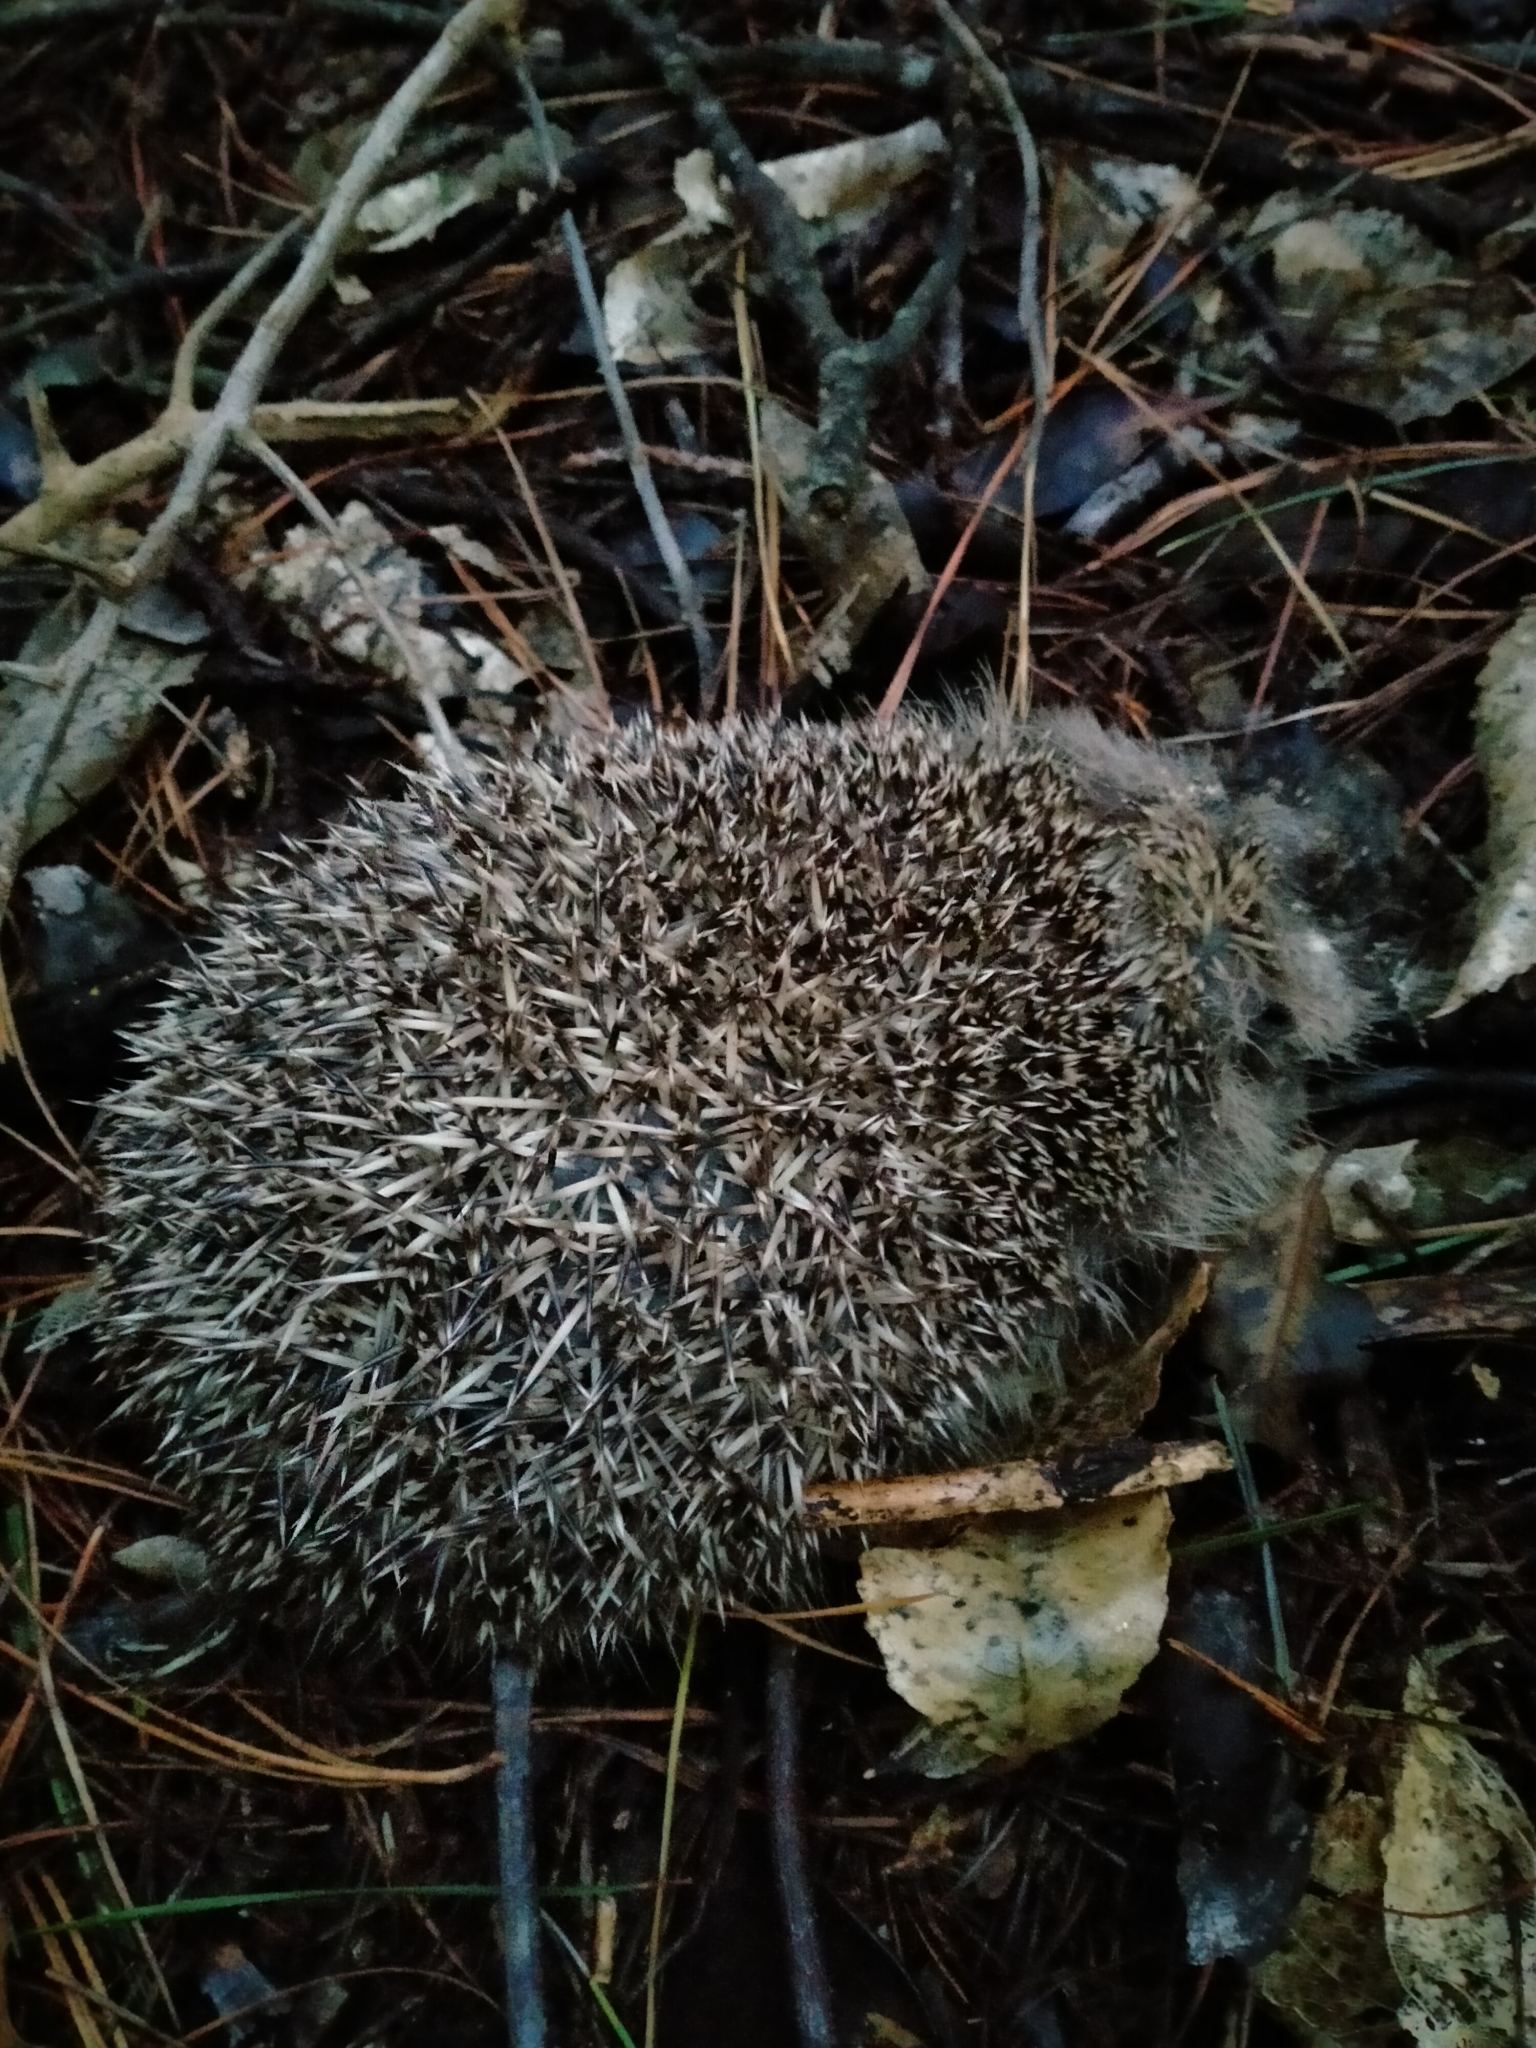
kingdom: Animalia
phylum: Chordata
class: Mammalia
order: Erinaceomorpha
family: Erinaceidae
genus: Erinaceus
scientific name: Erinaceus europaeus
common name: West european hedgehog
